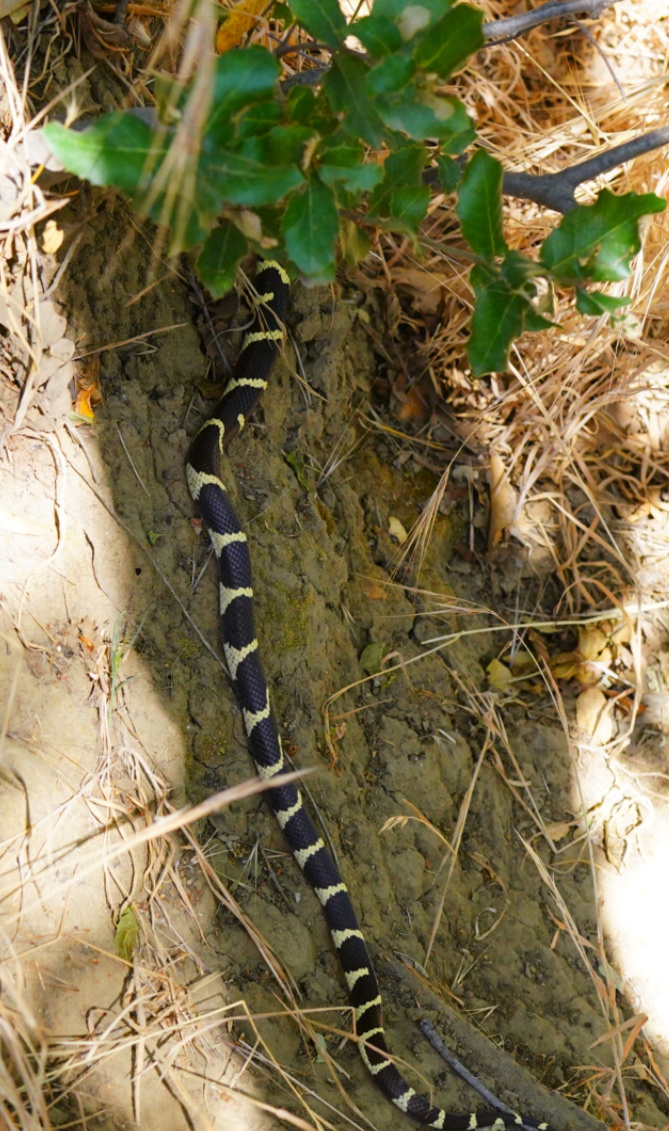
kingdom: Animalia
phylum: Chordata
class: Squamata
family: Colubridae
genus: Lampropeltis
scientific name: Lampropeltis californiae
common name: California kingsnake
